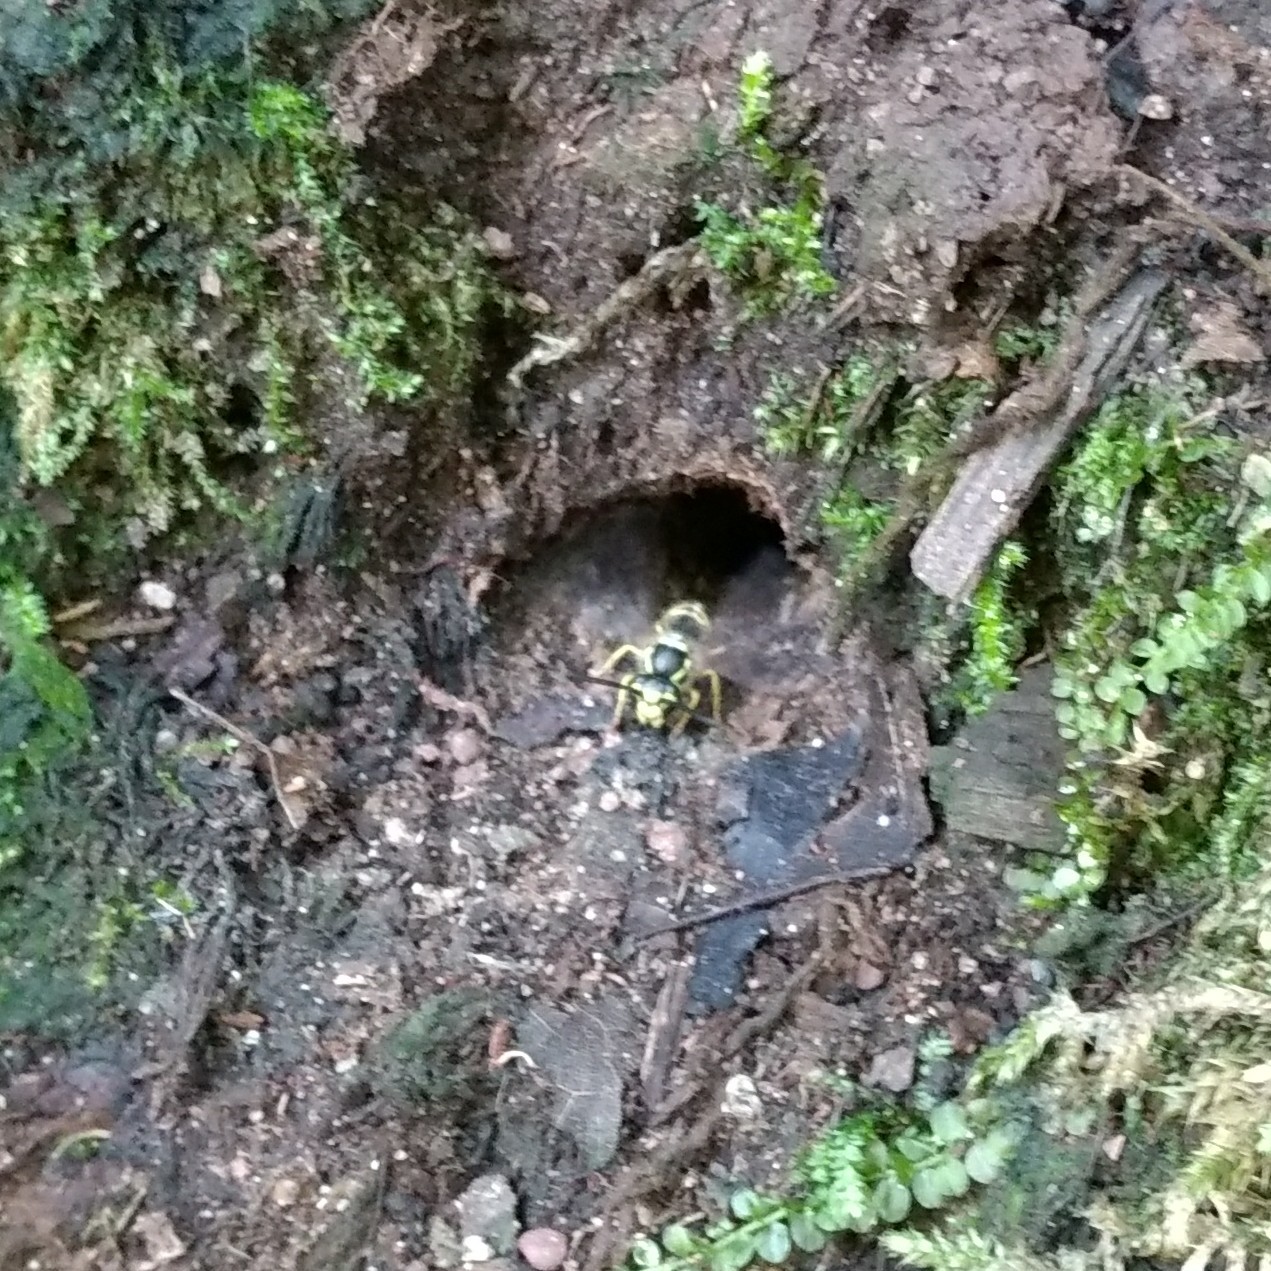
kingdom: Animalia
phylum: Arthropoda
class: Insecta
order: Hymenoptera
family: Vespidae
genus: Vespula
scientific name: Vespula
